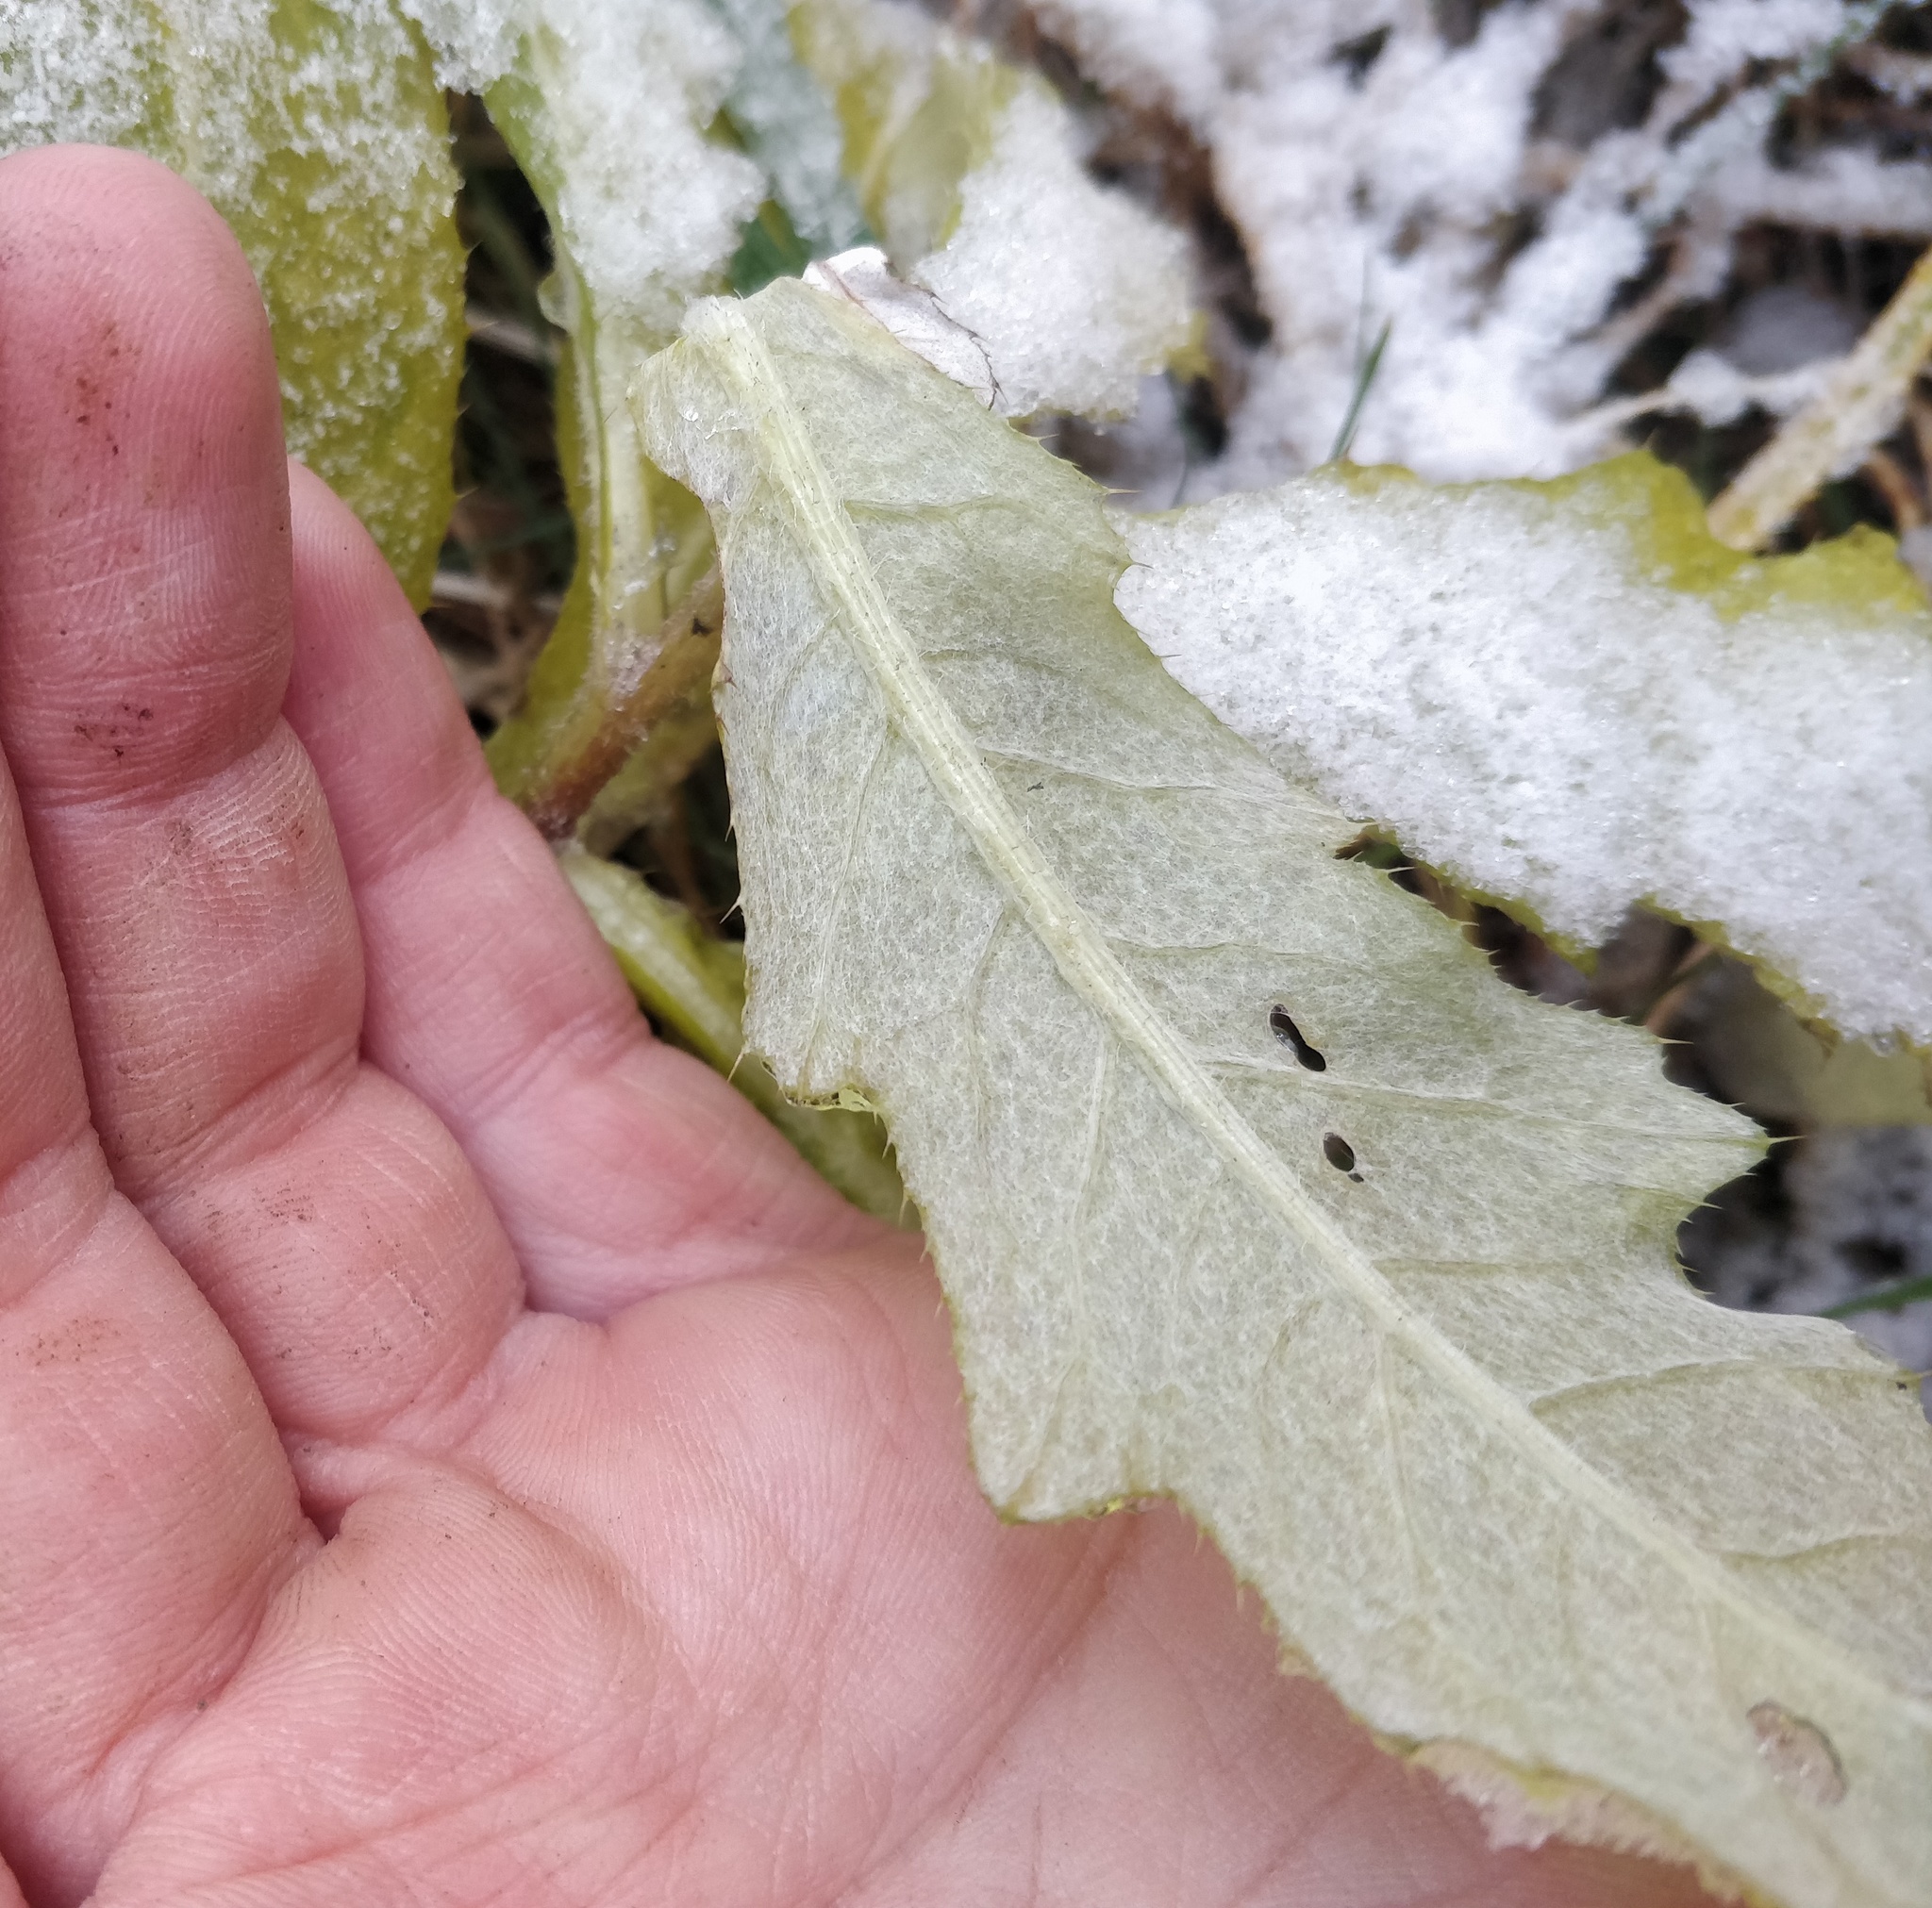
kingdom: Plantae
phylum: Tracheophyta
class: Magnoliopsida
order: Asterales
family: Asteraceae
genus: Cirsium
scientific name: Cirsium arvense
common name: Creeping thistle
